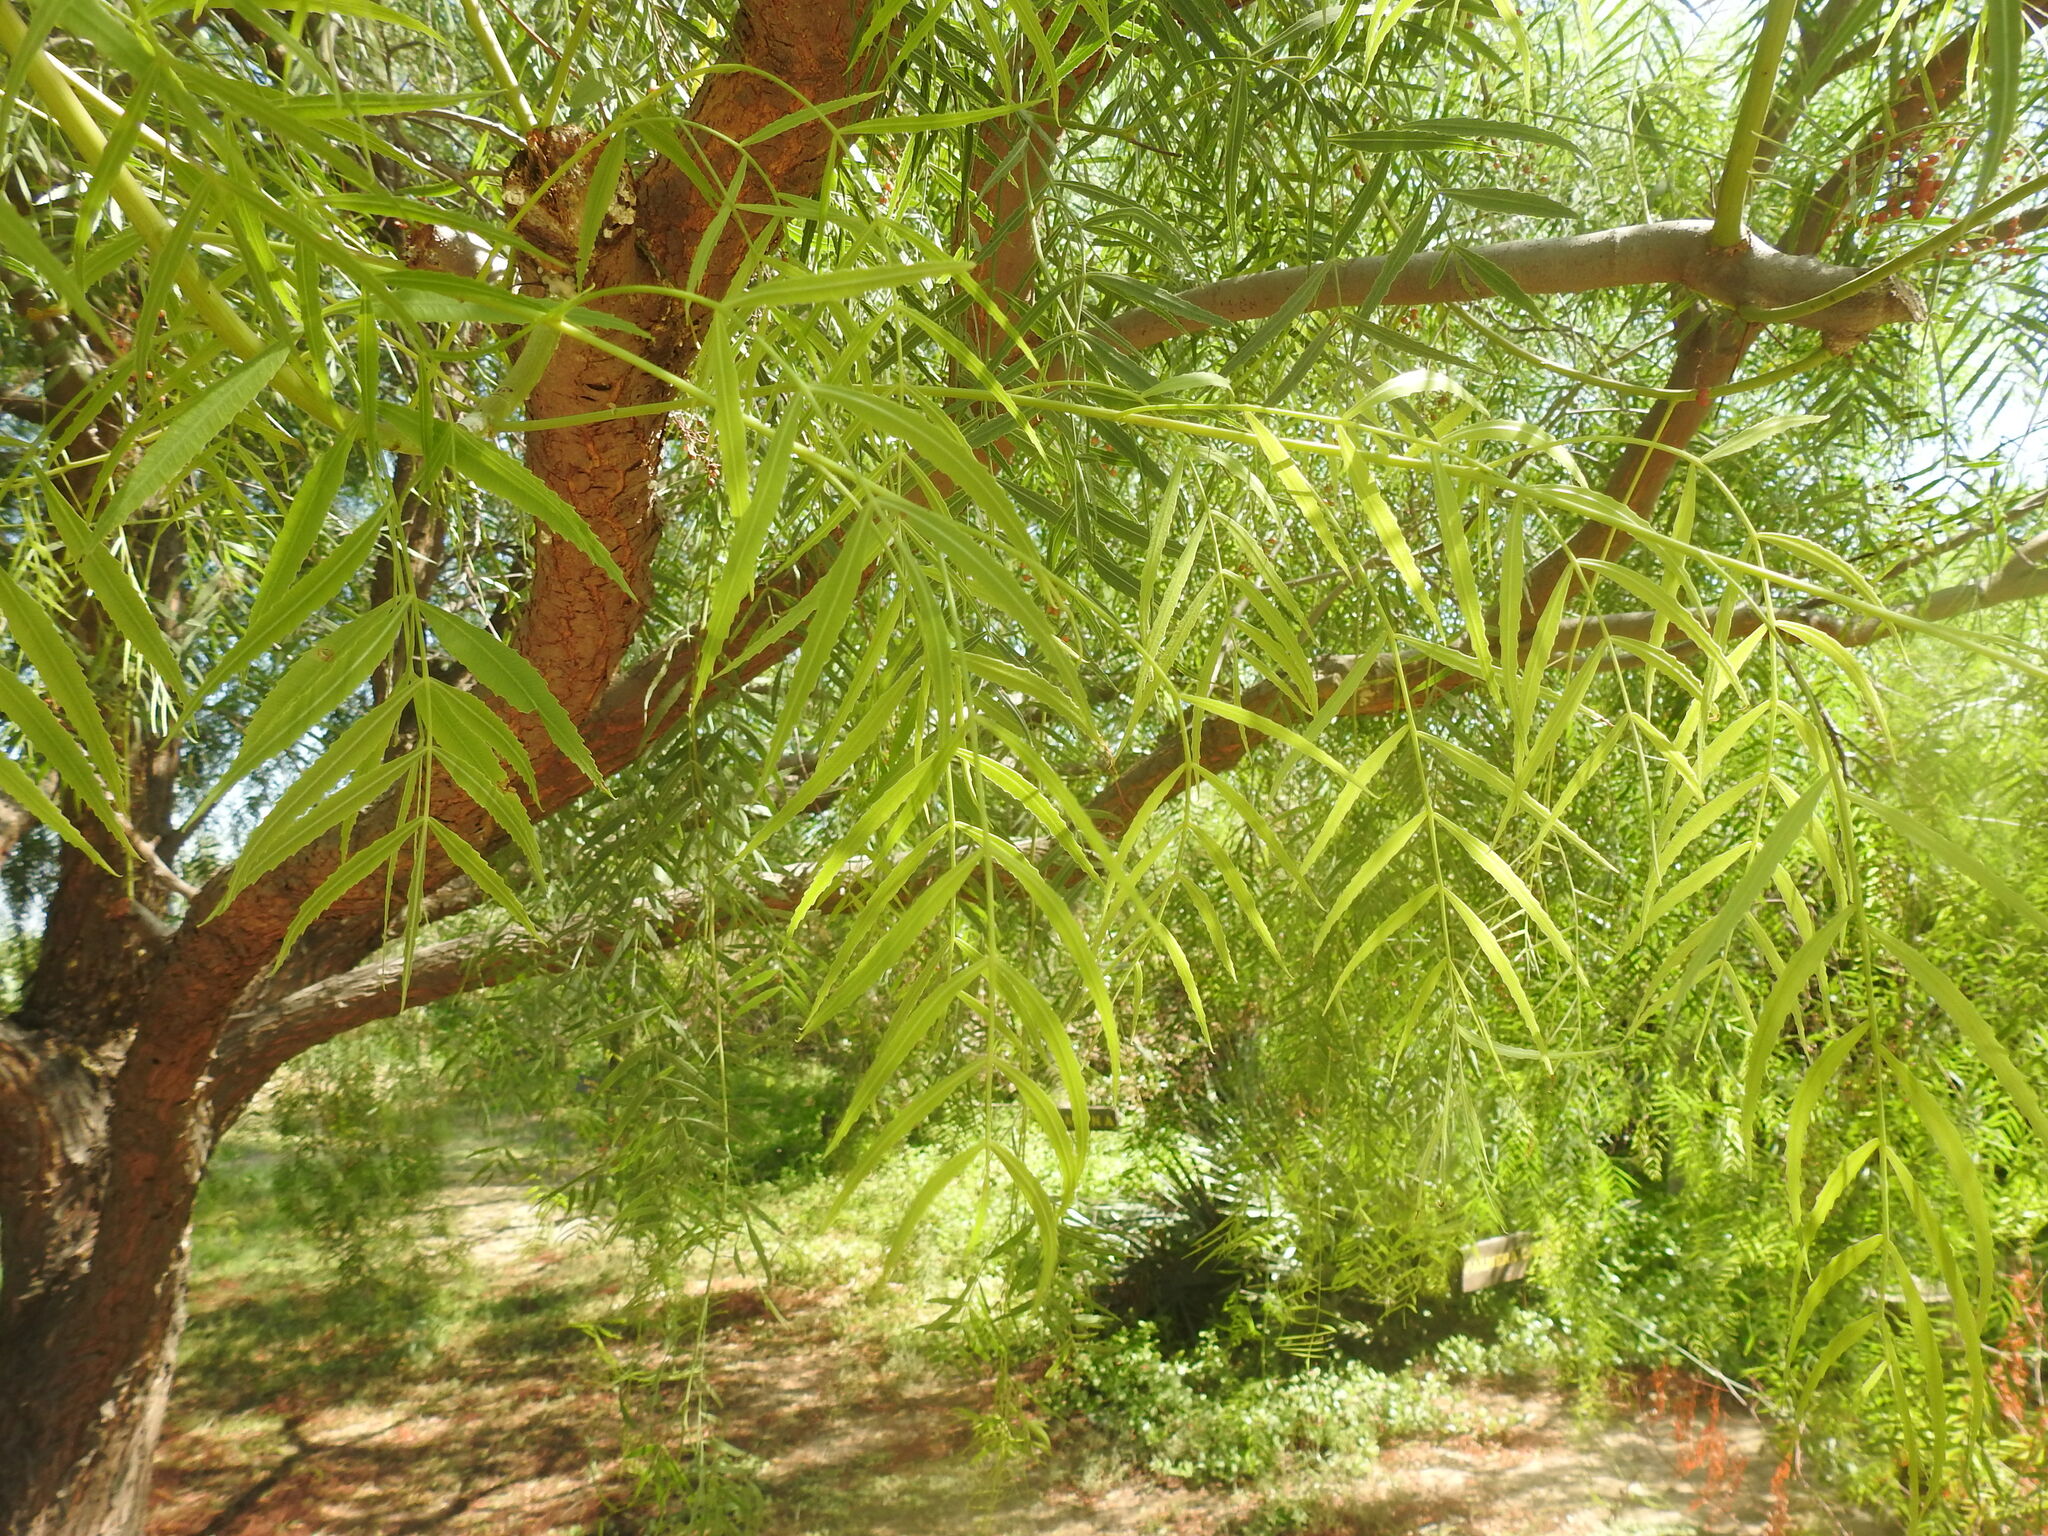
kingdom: Plantae
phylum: Tracheophyta
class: Magnoliopsida
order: Sapindales
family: Anacardiaceae
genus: Schinus
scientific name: Schinus molle
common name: Peruvian peppertree
